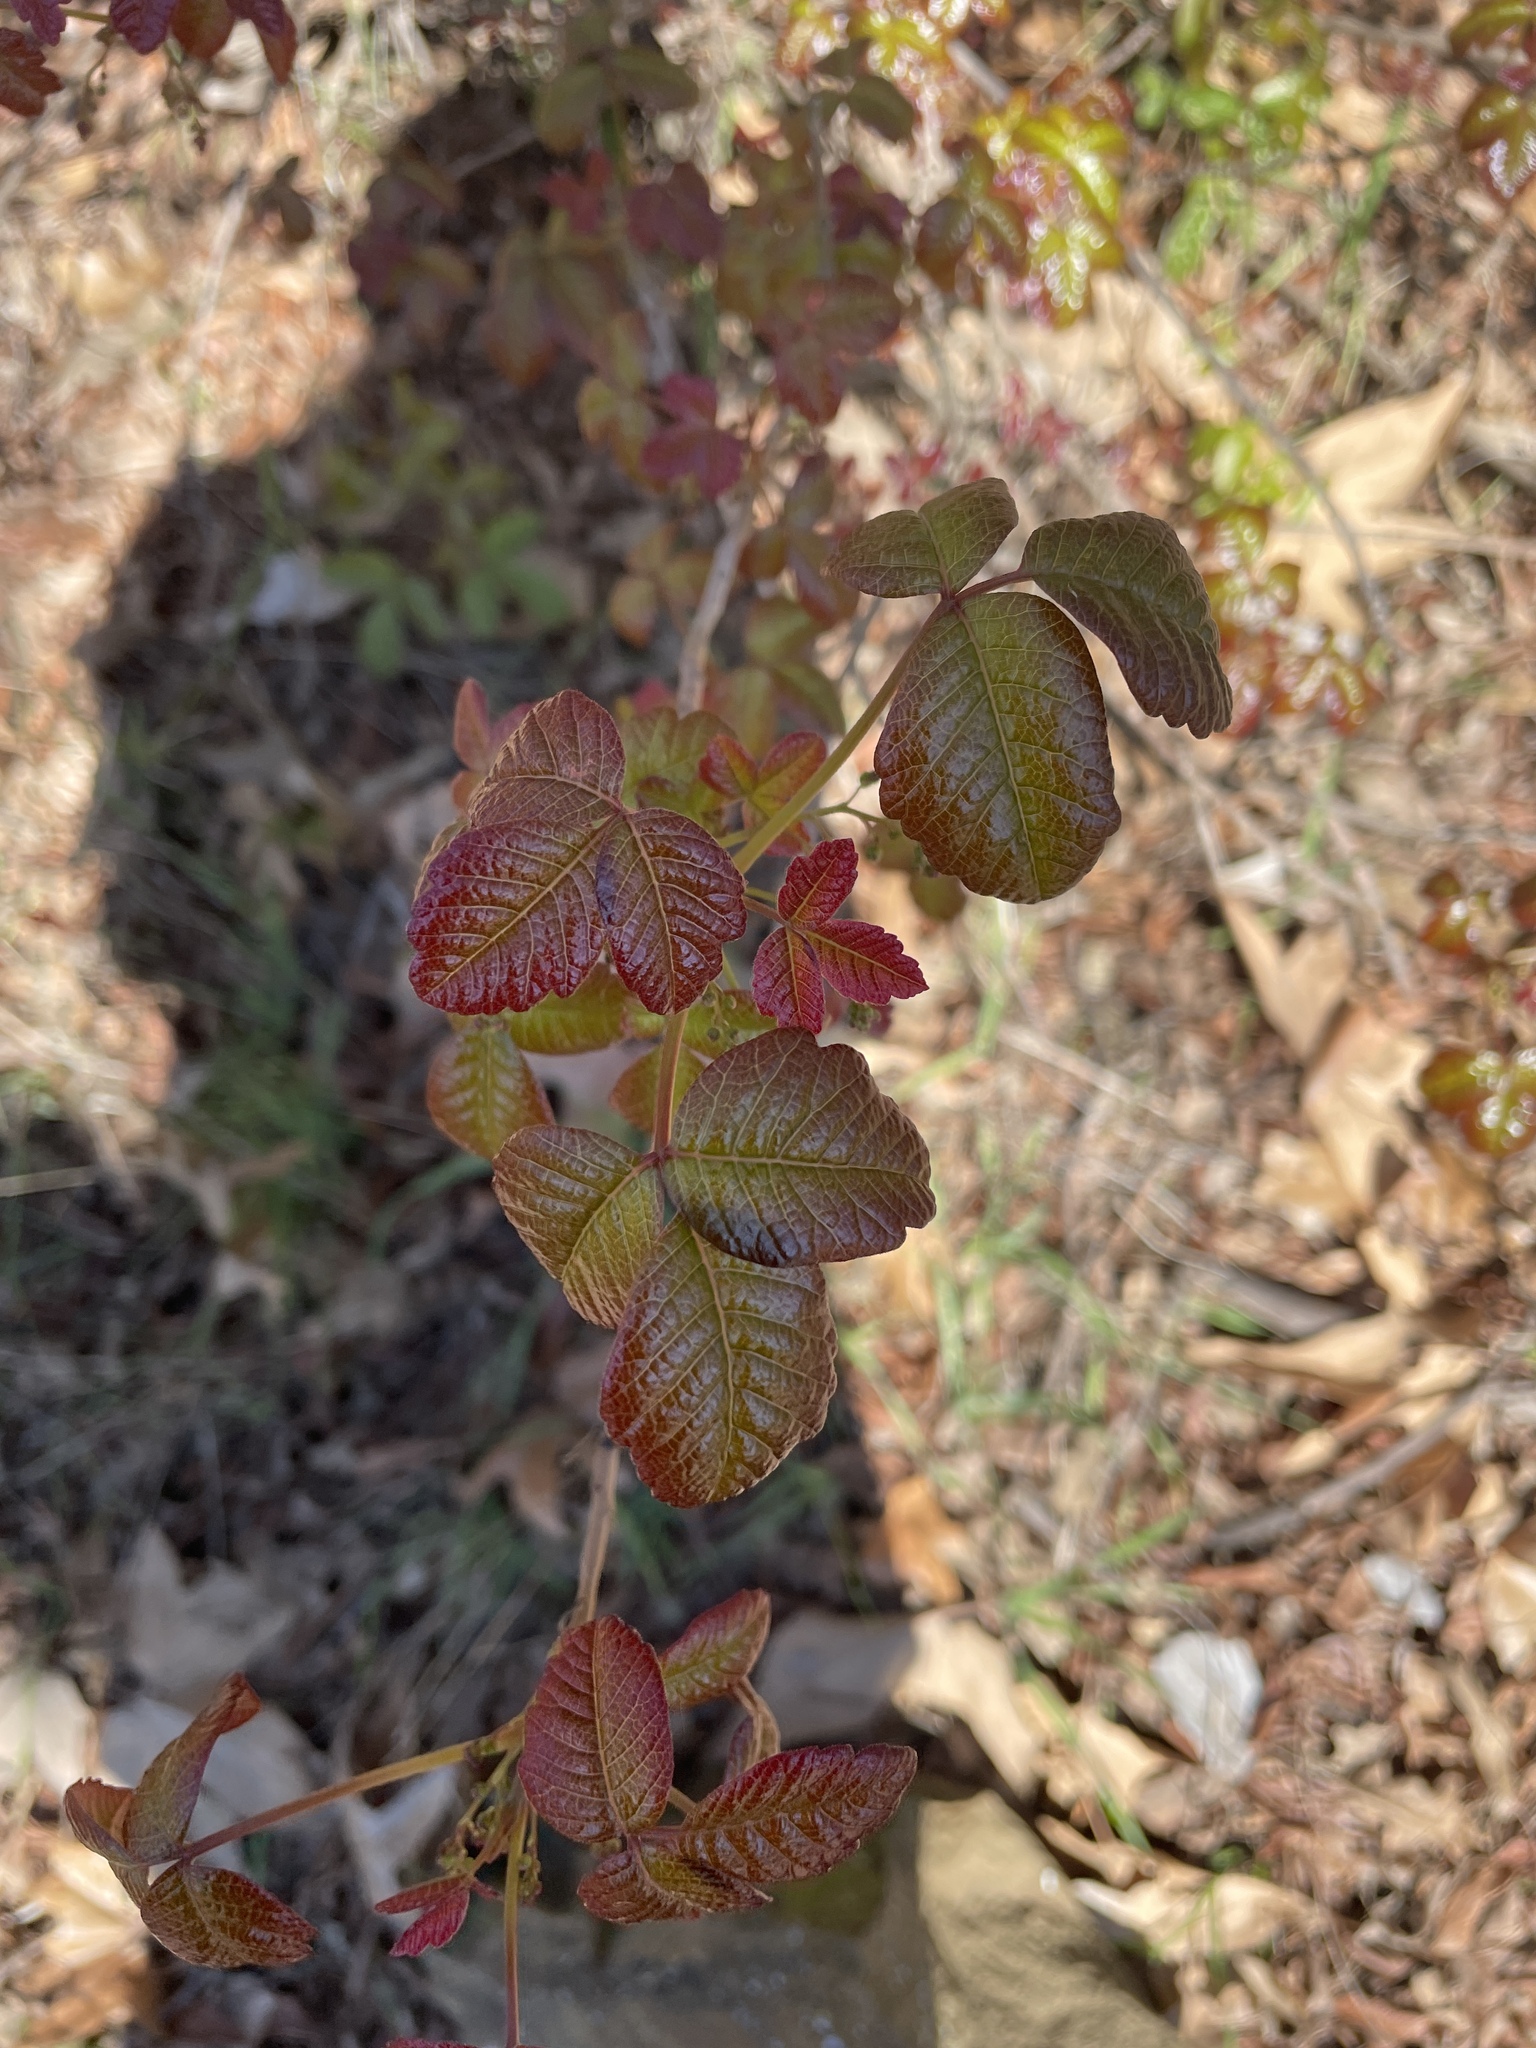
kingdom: Plantae
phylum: Tracheophyta
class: Magnoliopsida
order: Sapindales
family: Anacardiaceae
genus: Toxicodendron
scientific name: Toxicodendron diversilobum
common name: Pacific poison-oak
